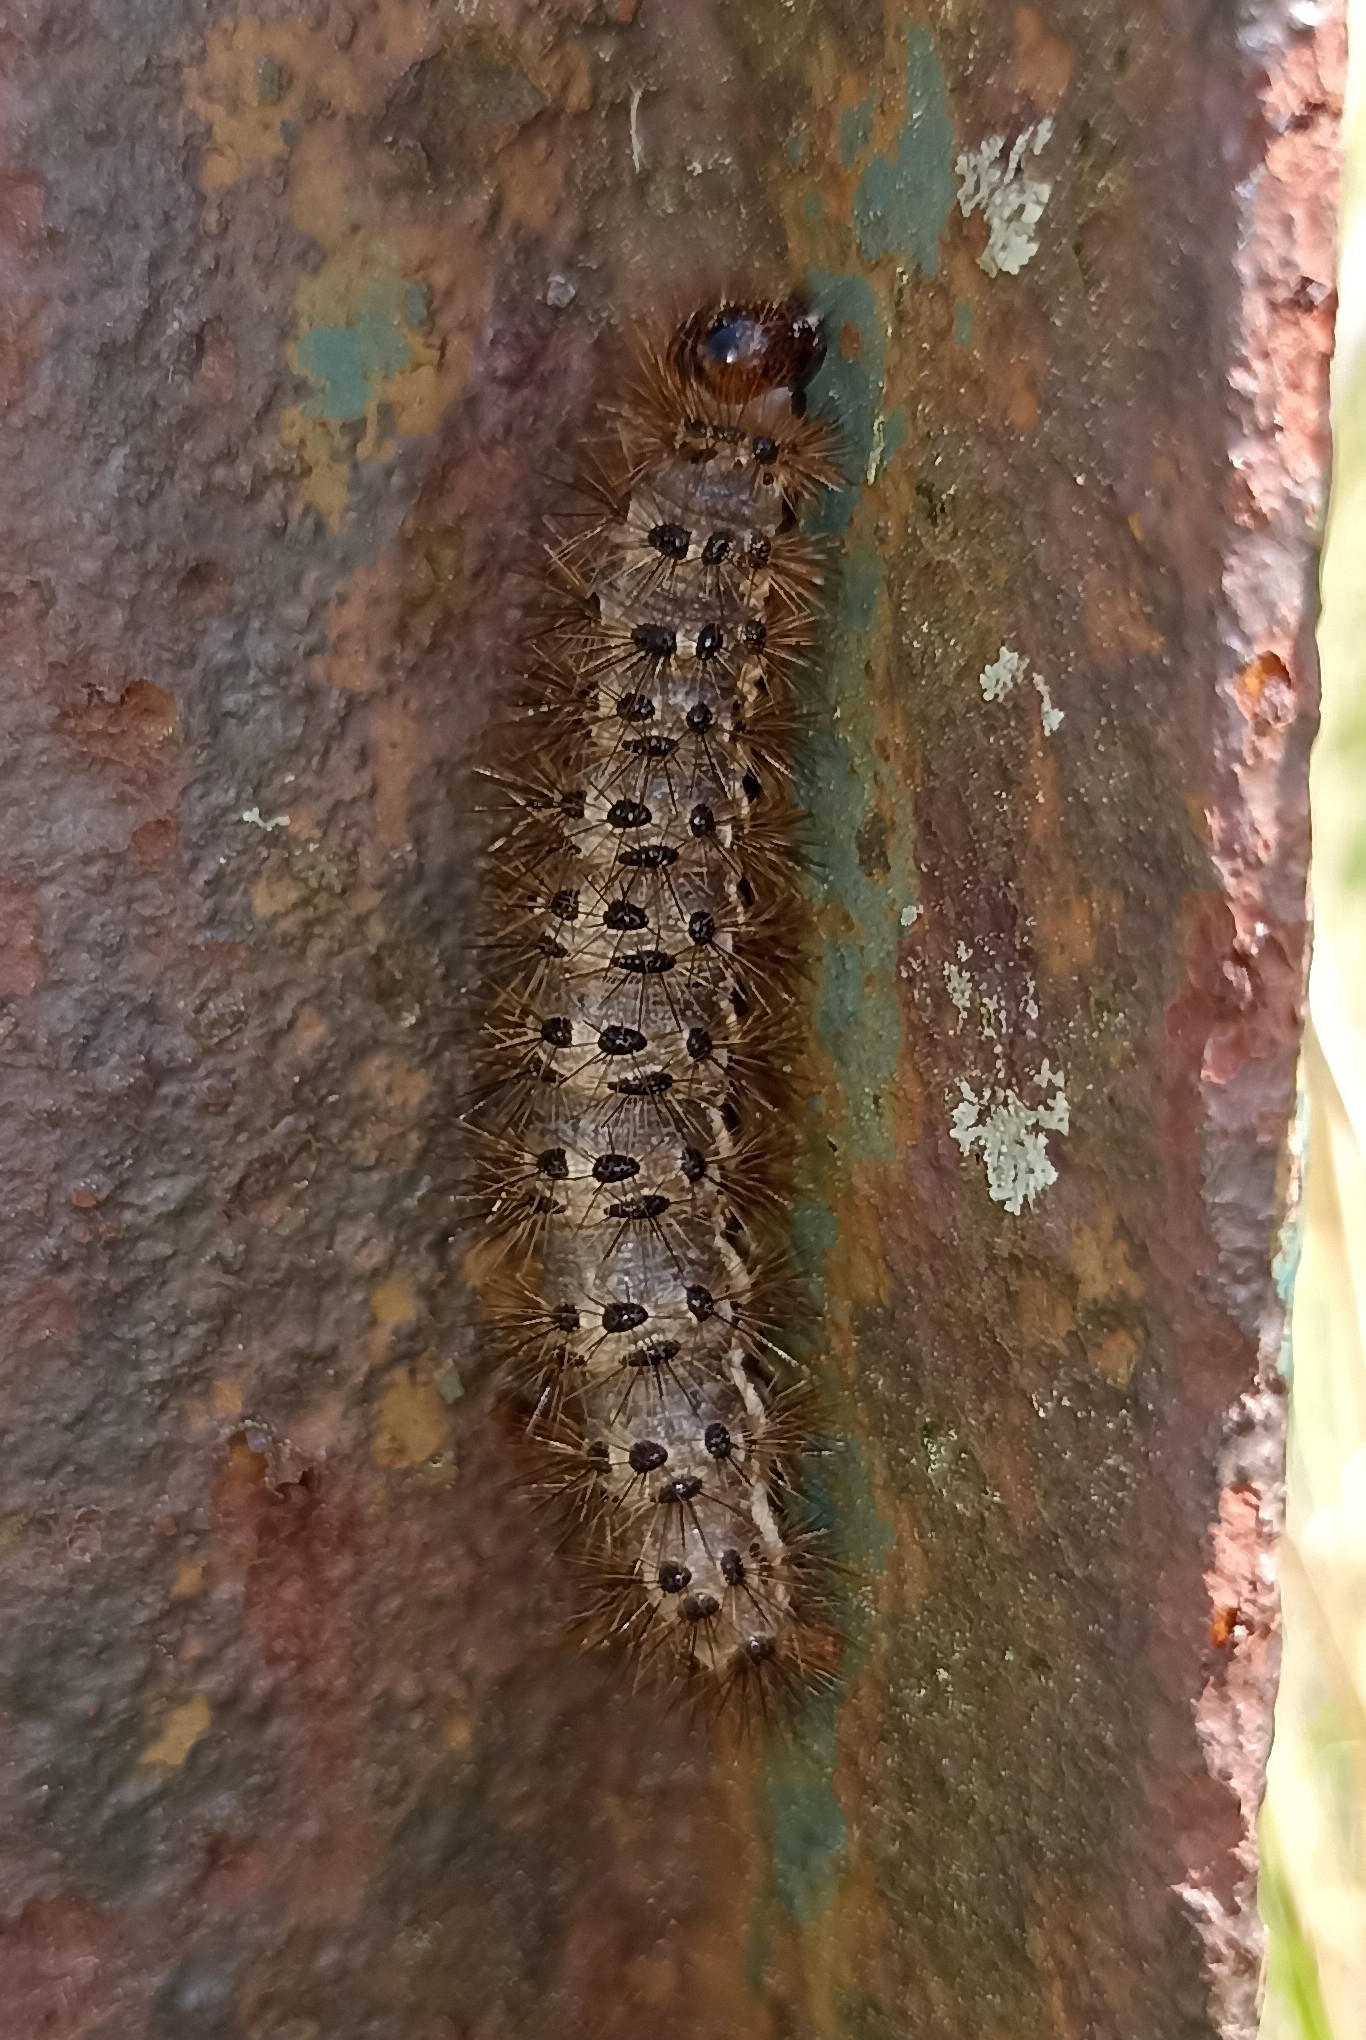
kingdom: Animalia
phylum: Arthropoda
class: Insecta
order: Lepidoptera
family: Erebidae
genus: Cymbalophora
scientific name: Cymbalophora pudica
